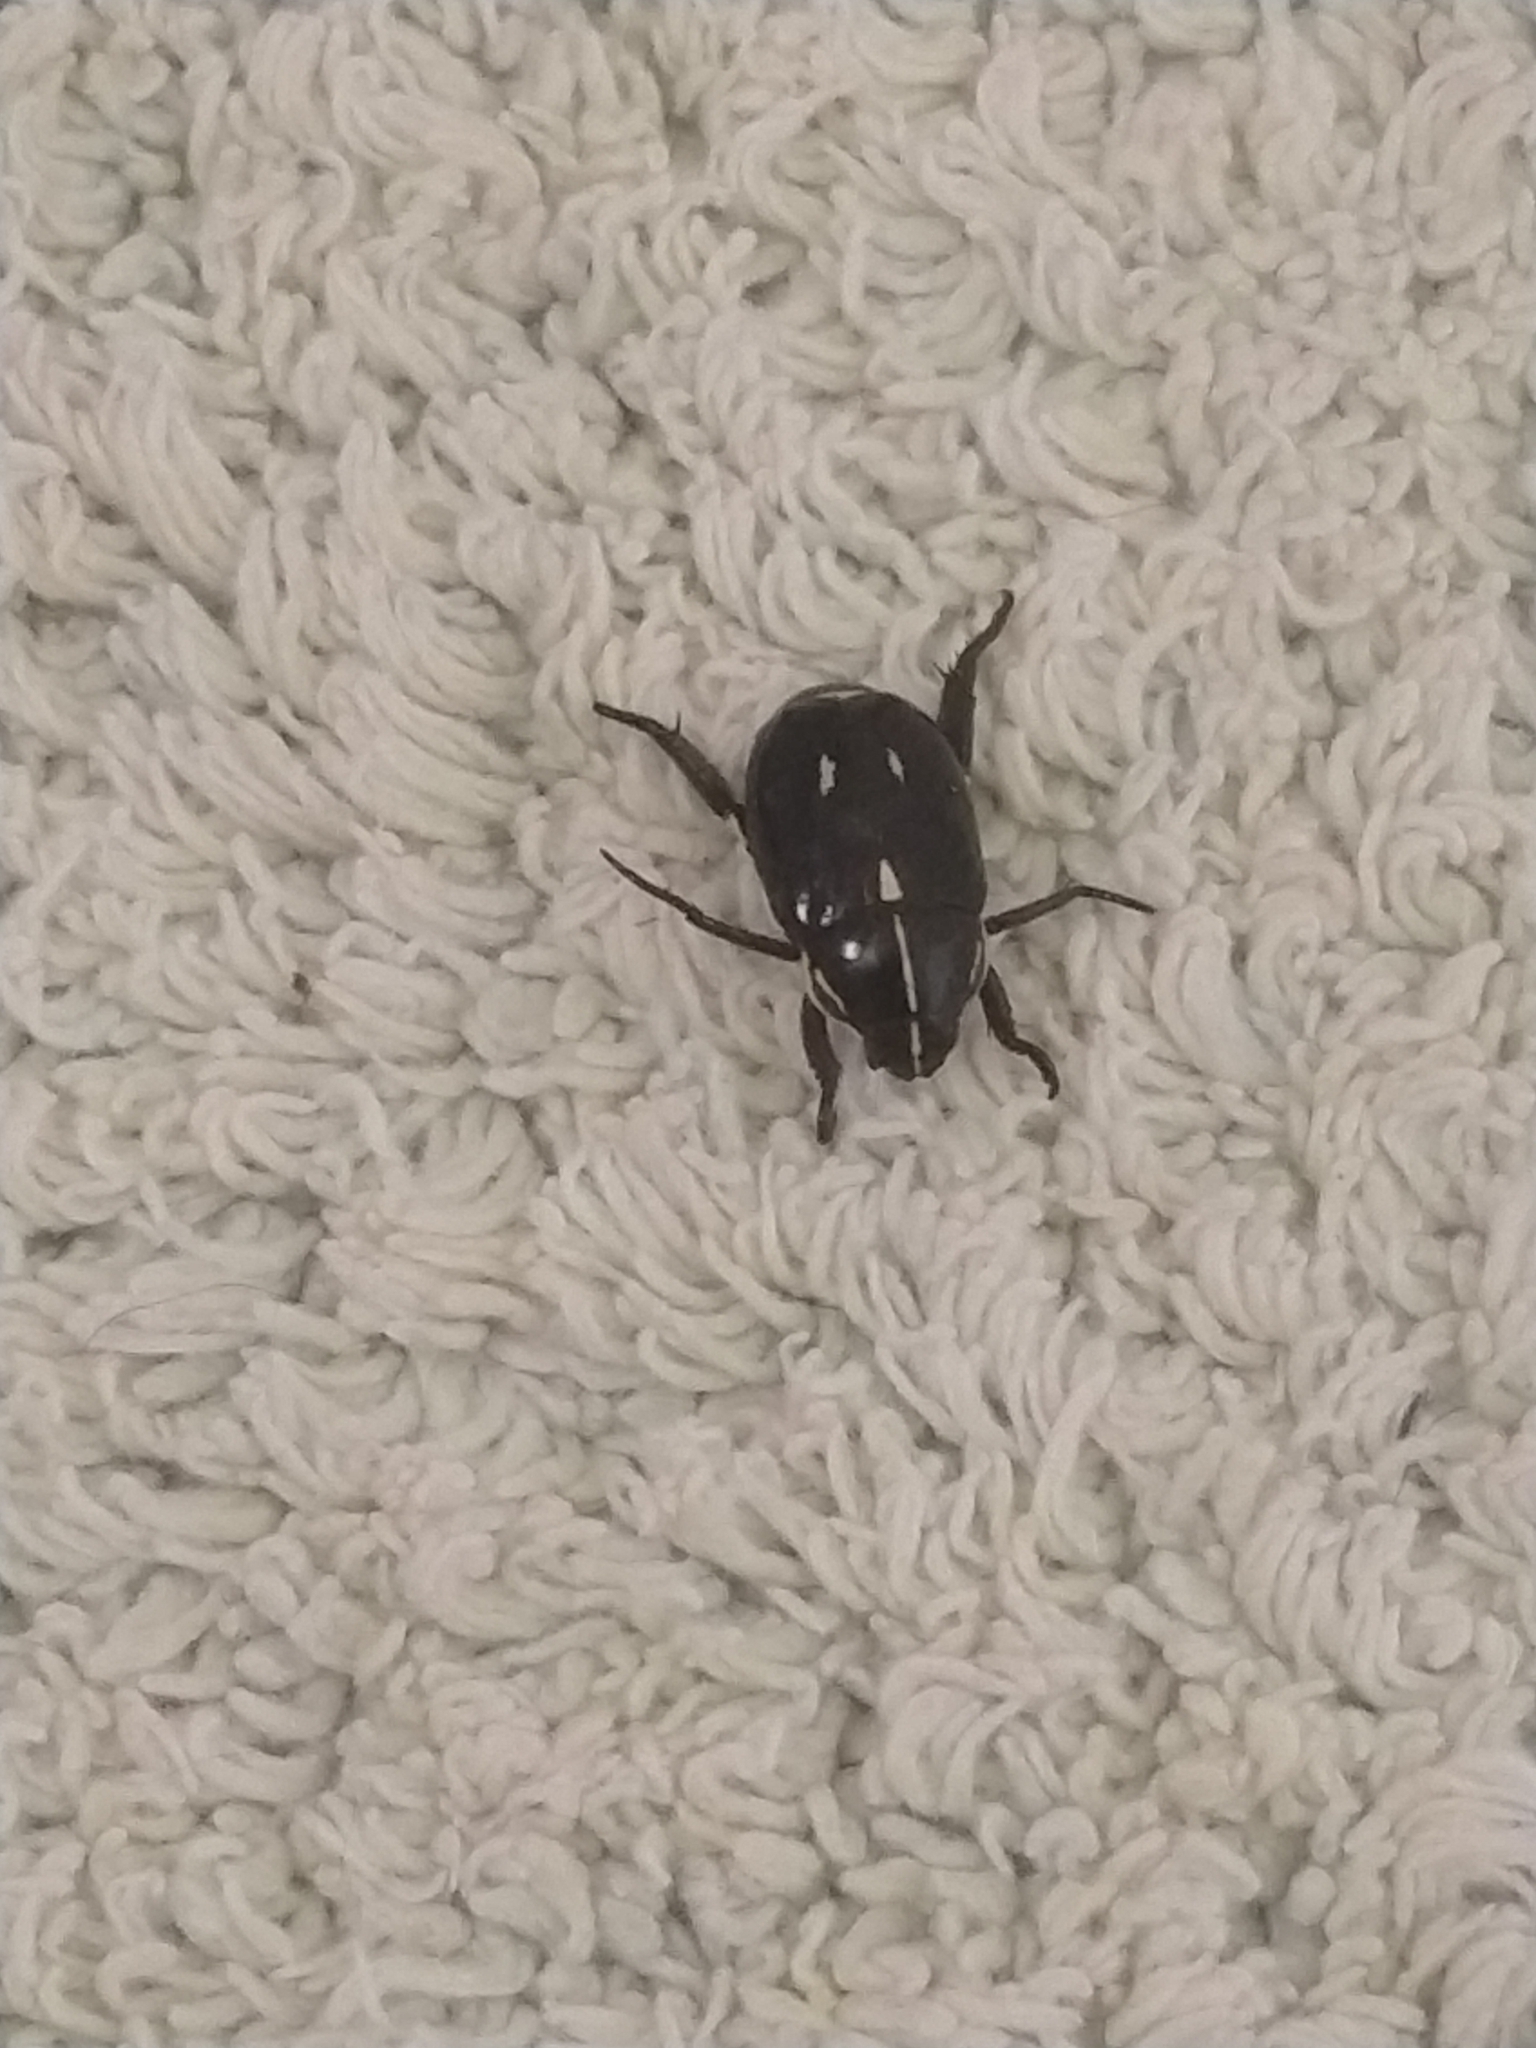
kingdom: Animalia
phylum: Arthropoda
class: Insecta
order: Coleoptera
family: Scarabaeidae
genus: Rutela
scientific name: Rutela lineola
